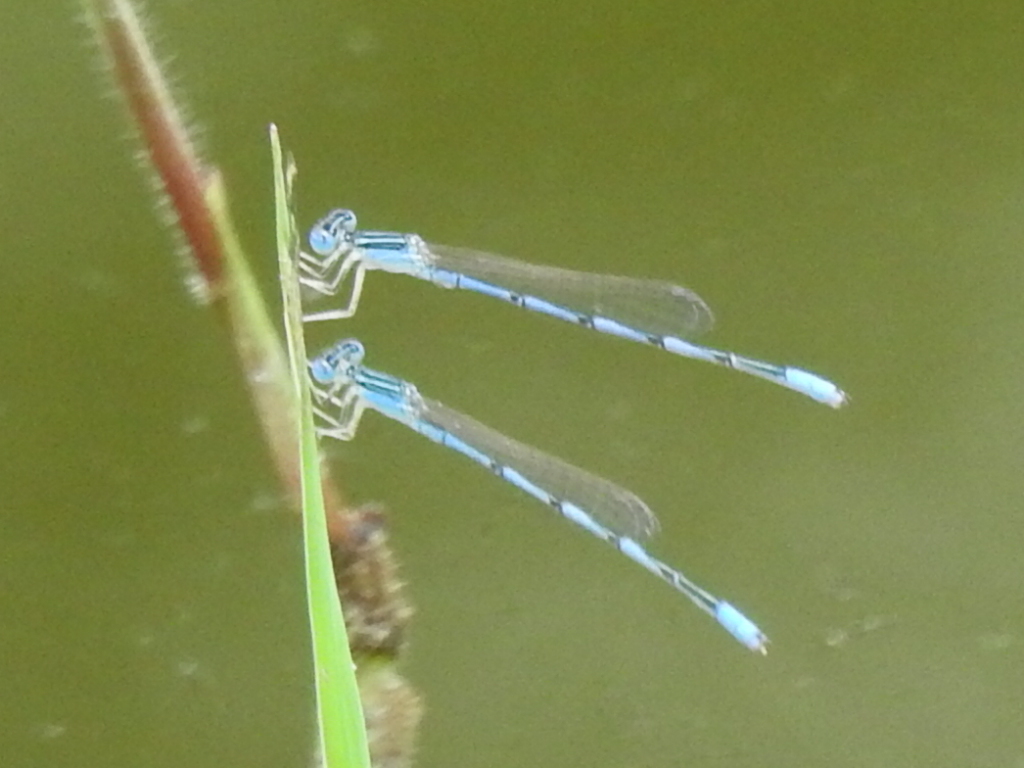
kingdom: Animalia
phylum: Arthropoda
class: Insecta
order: Odonata
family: Coenagrionidae
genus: Enallagma
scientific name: Enallagma basidens
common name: Double-striped bluet
